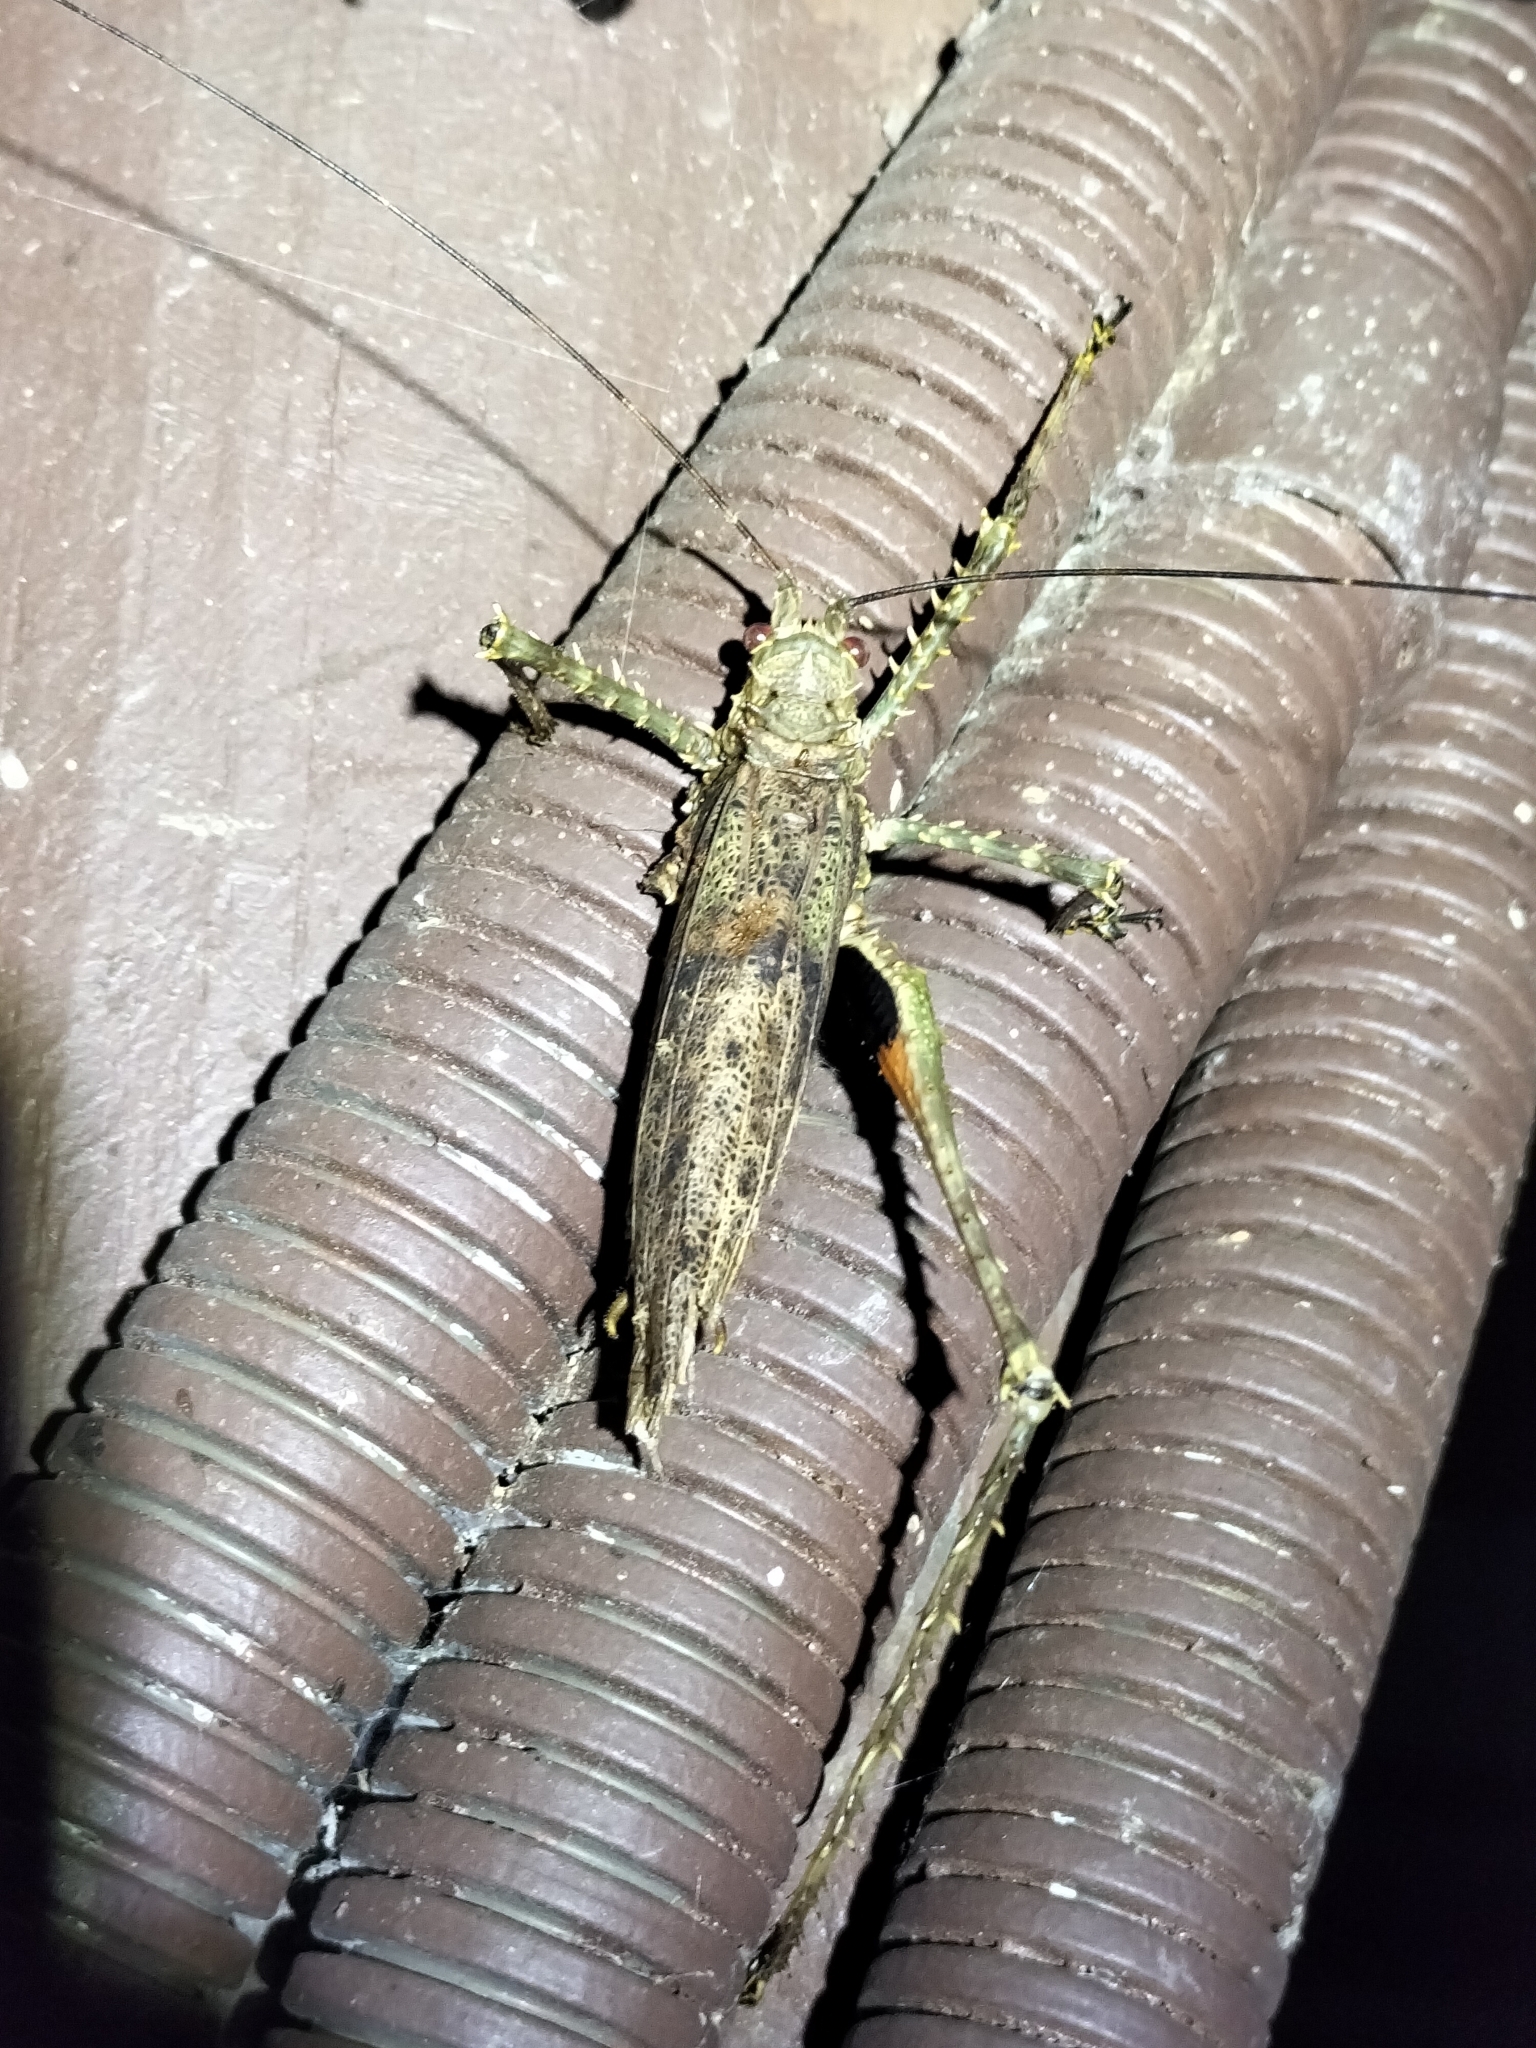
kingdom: Animalia
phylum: Arthropoda
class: Insecta
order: Orthoptera
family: Tettigoniidae
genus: Phricta
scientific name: Phricta spinosa
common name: Giant spiny forest katydid
